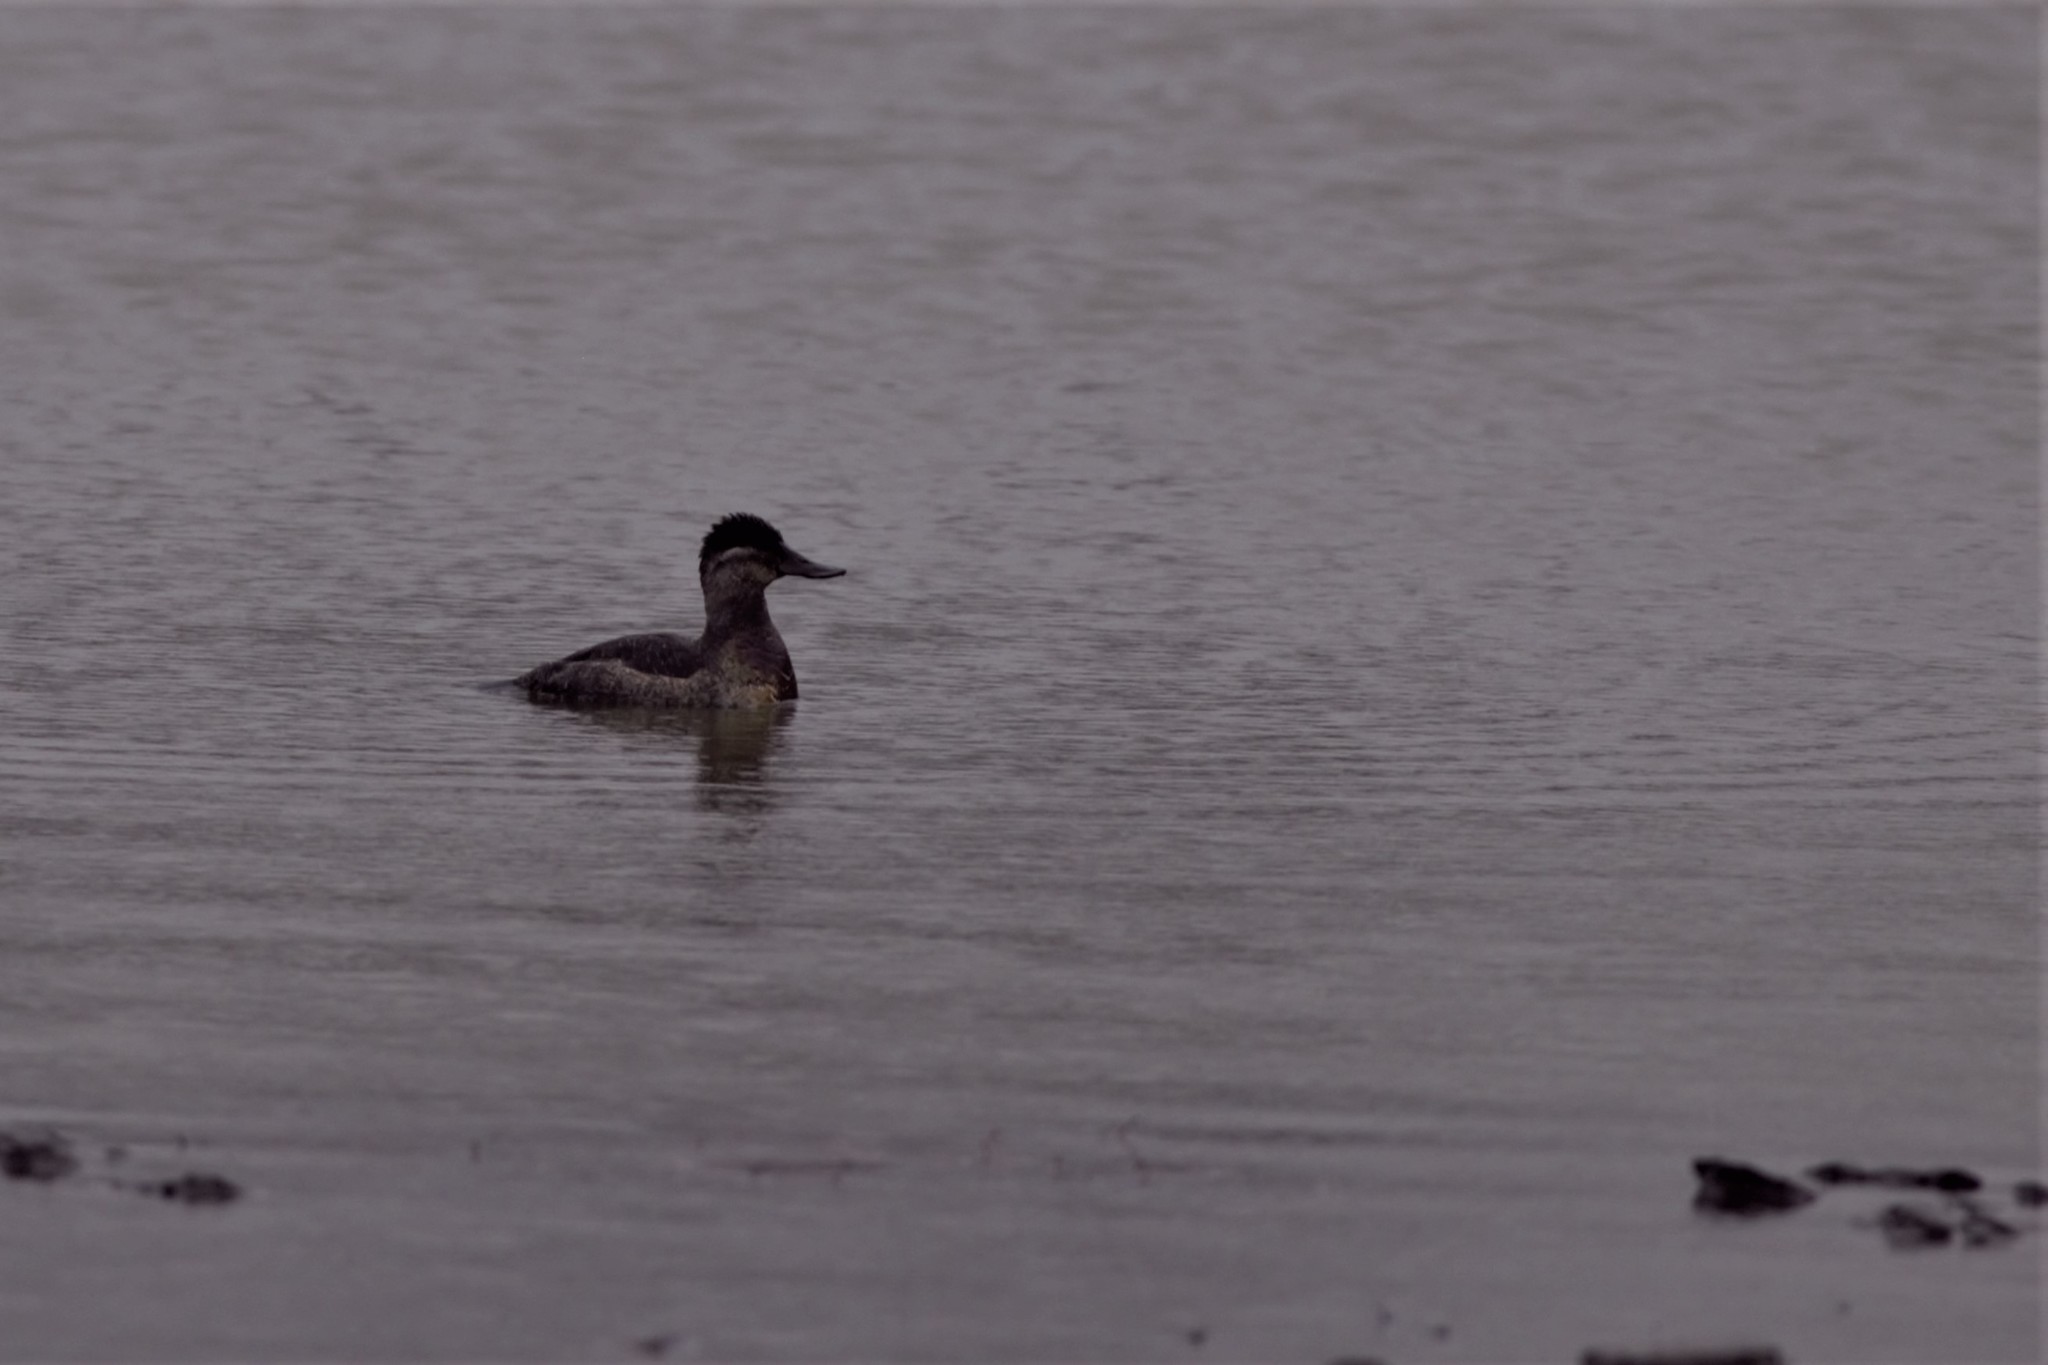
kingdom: Animalia
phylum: Chordata
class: Aves
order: Anseriformes
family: Anatidae
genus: Oxyura
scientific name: Oxyura jamaicensis
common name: Ruddy duck
